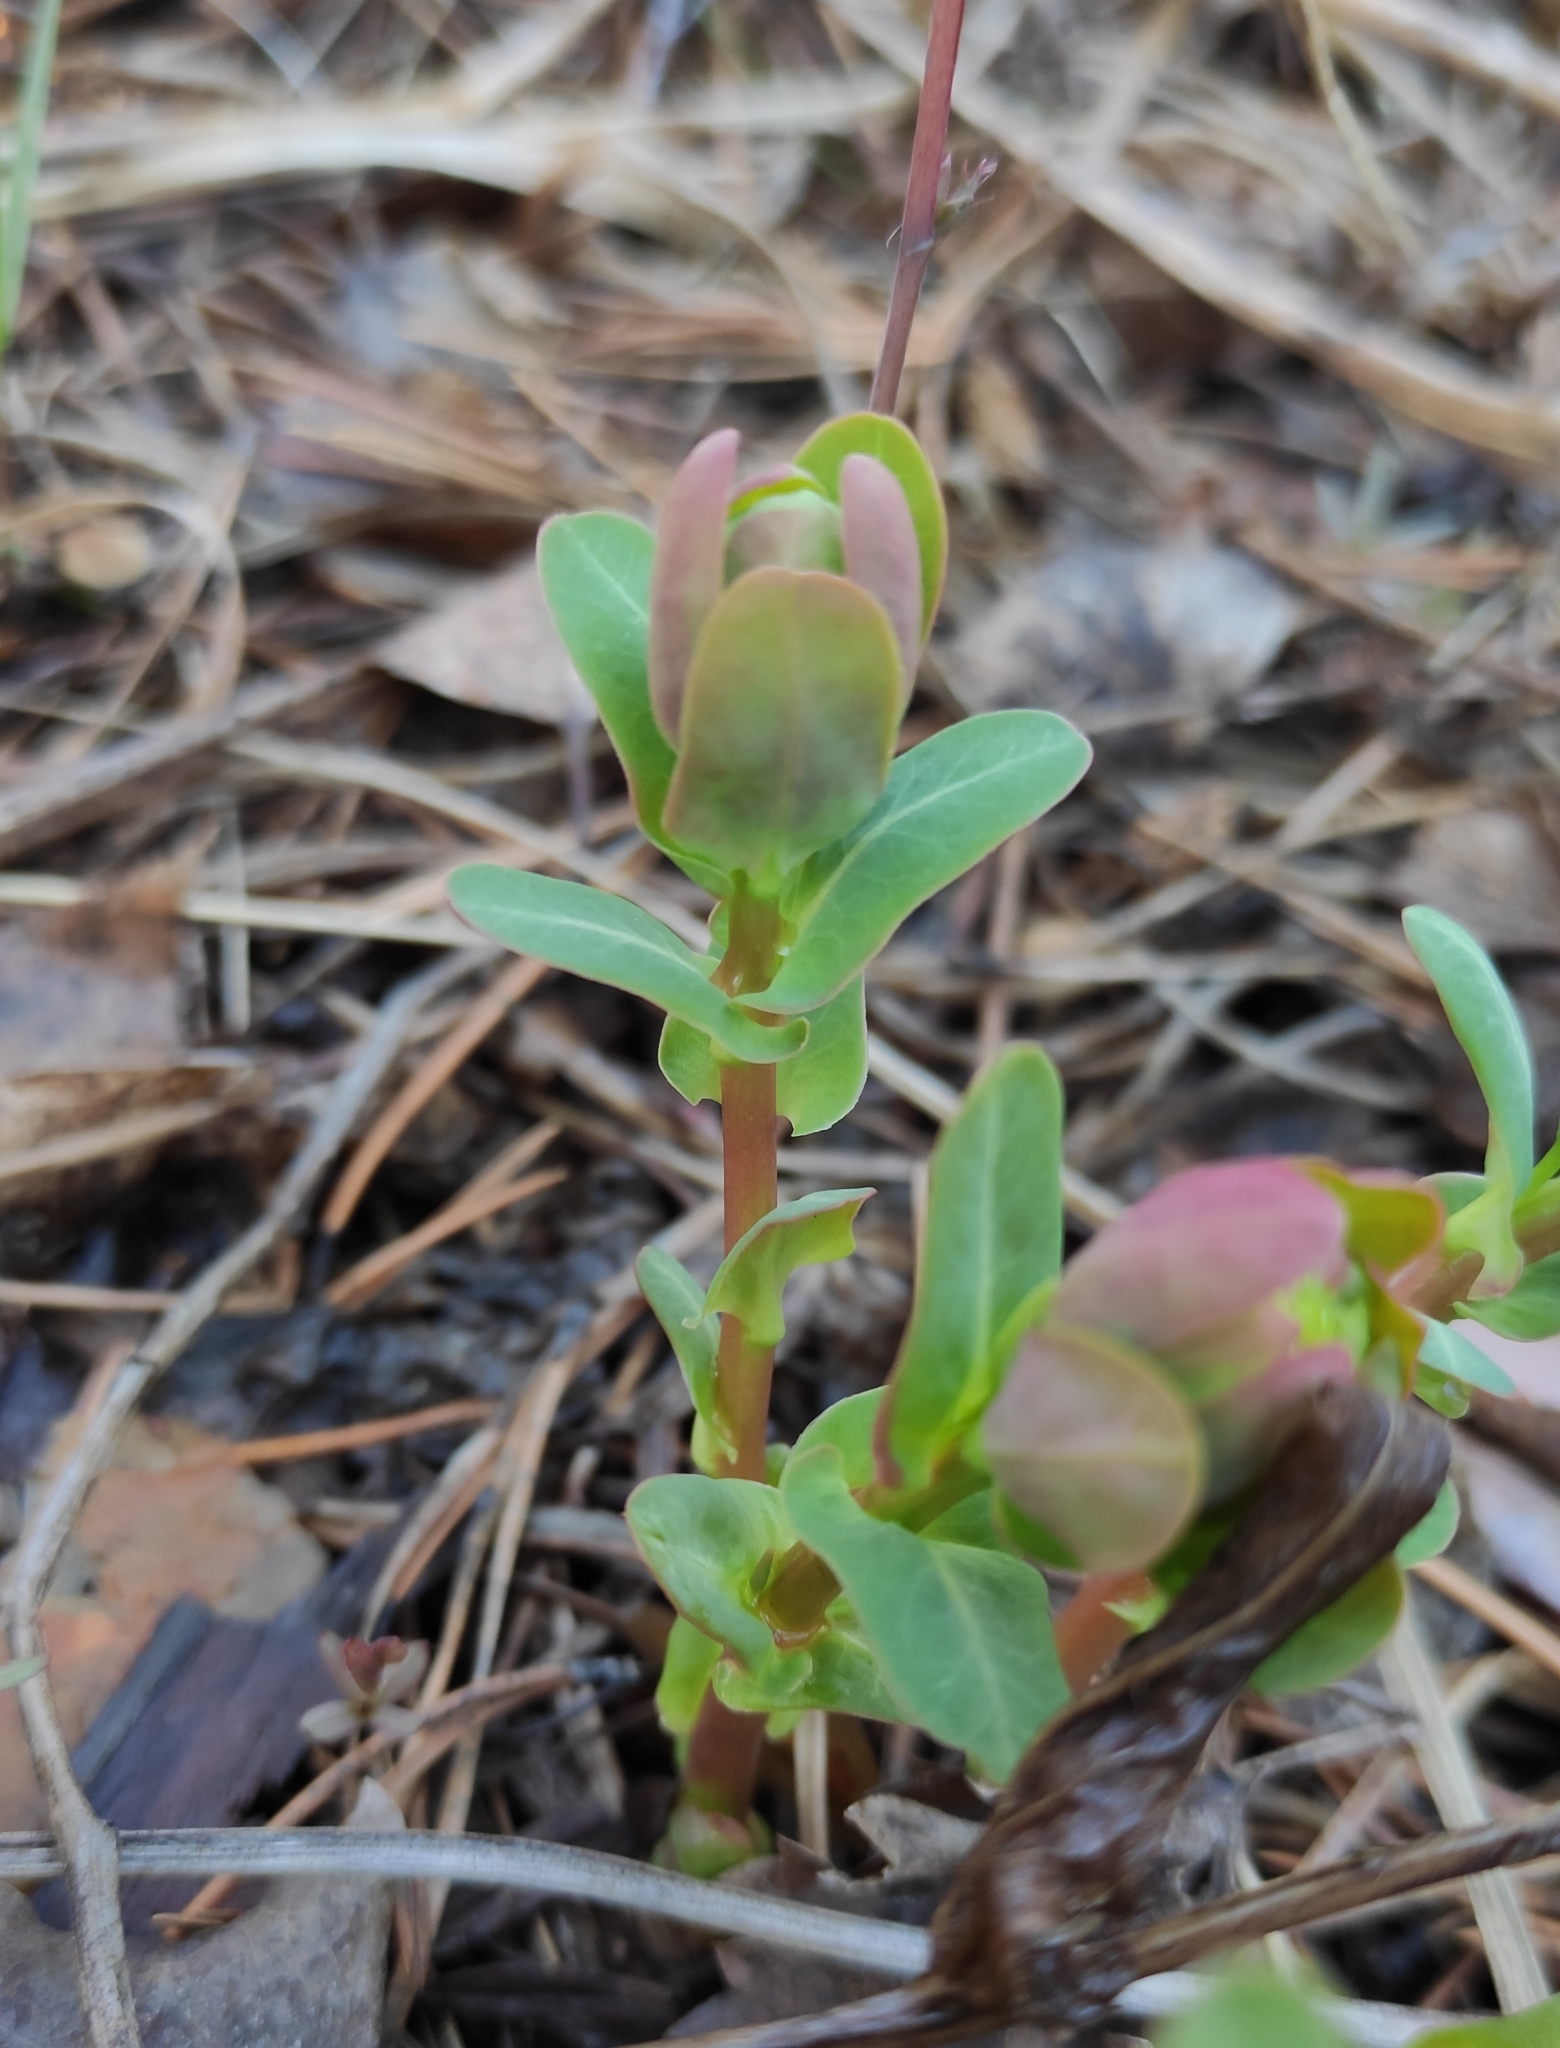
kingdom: Plantae
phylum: Tracheophyta
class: Magnoliopsida
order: Malpighiales
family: Euphorbiaceae
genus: Euphorbia
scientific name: Euphorbia jenisseiensis
